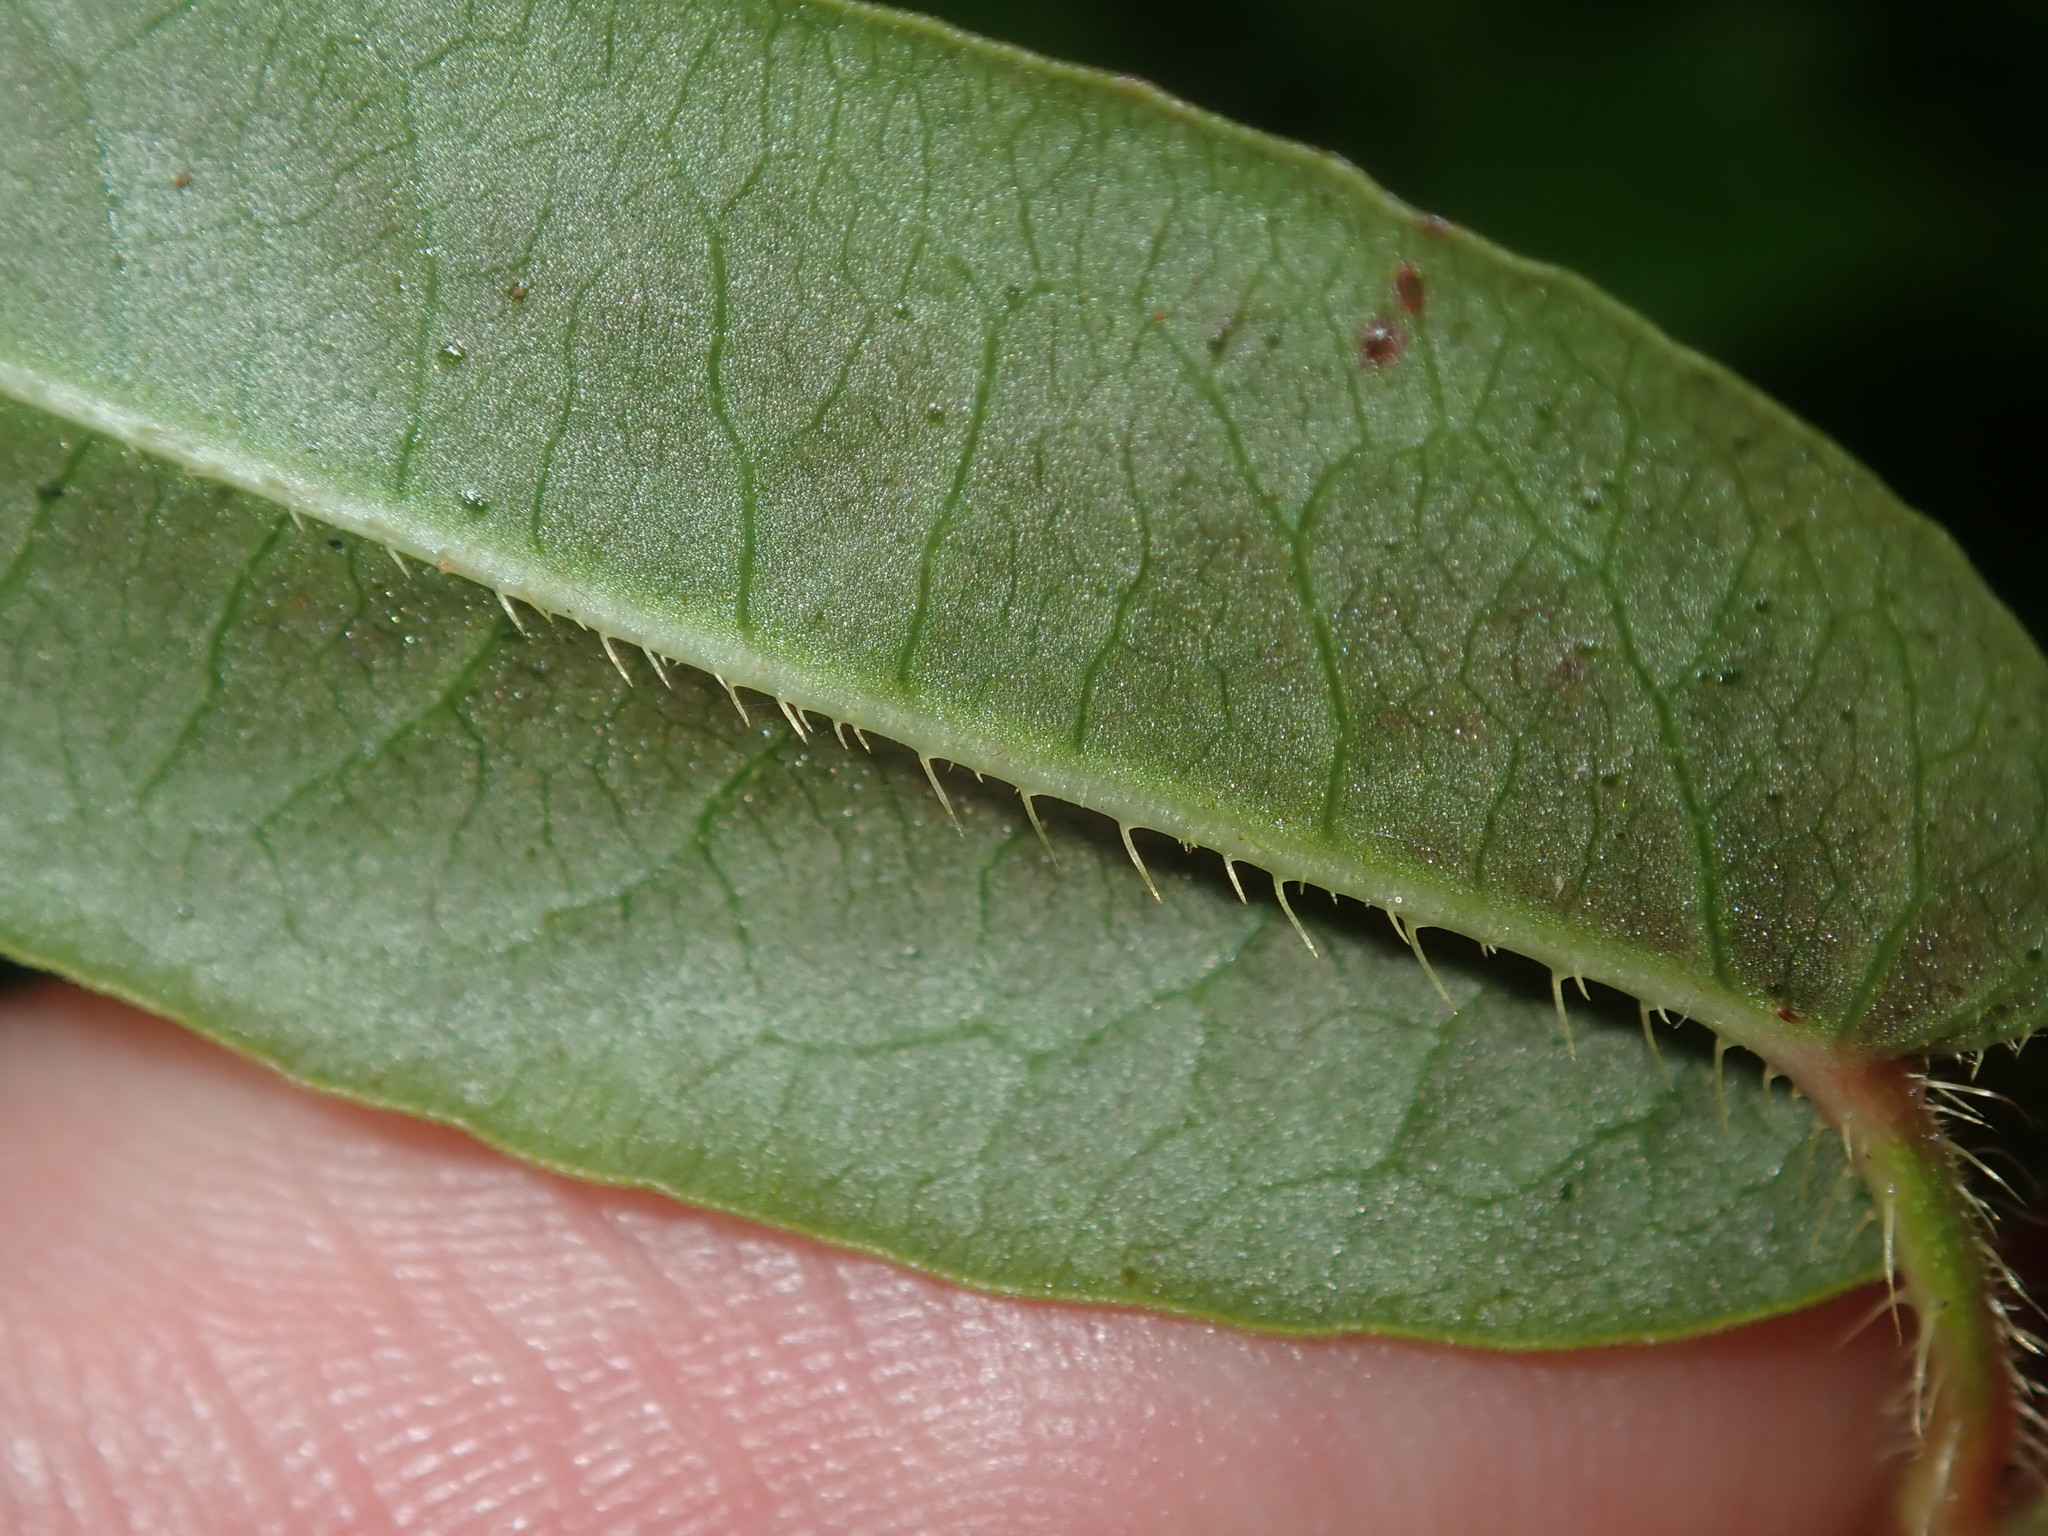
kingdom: Plantae
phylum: Tracheophyta
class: Magnoliopsida
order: Caryophyllales
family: Polygonaceae
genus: Persicaria
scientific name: Persicaria strigosa
